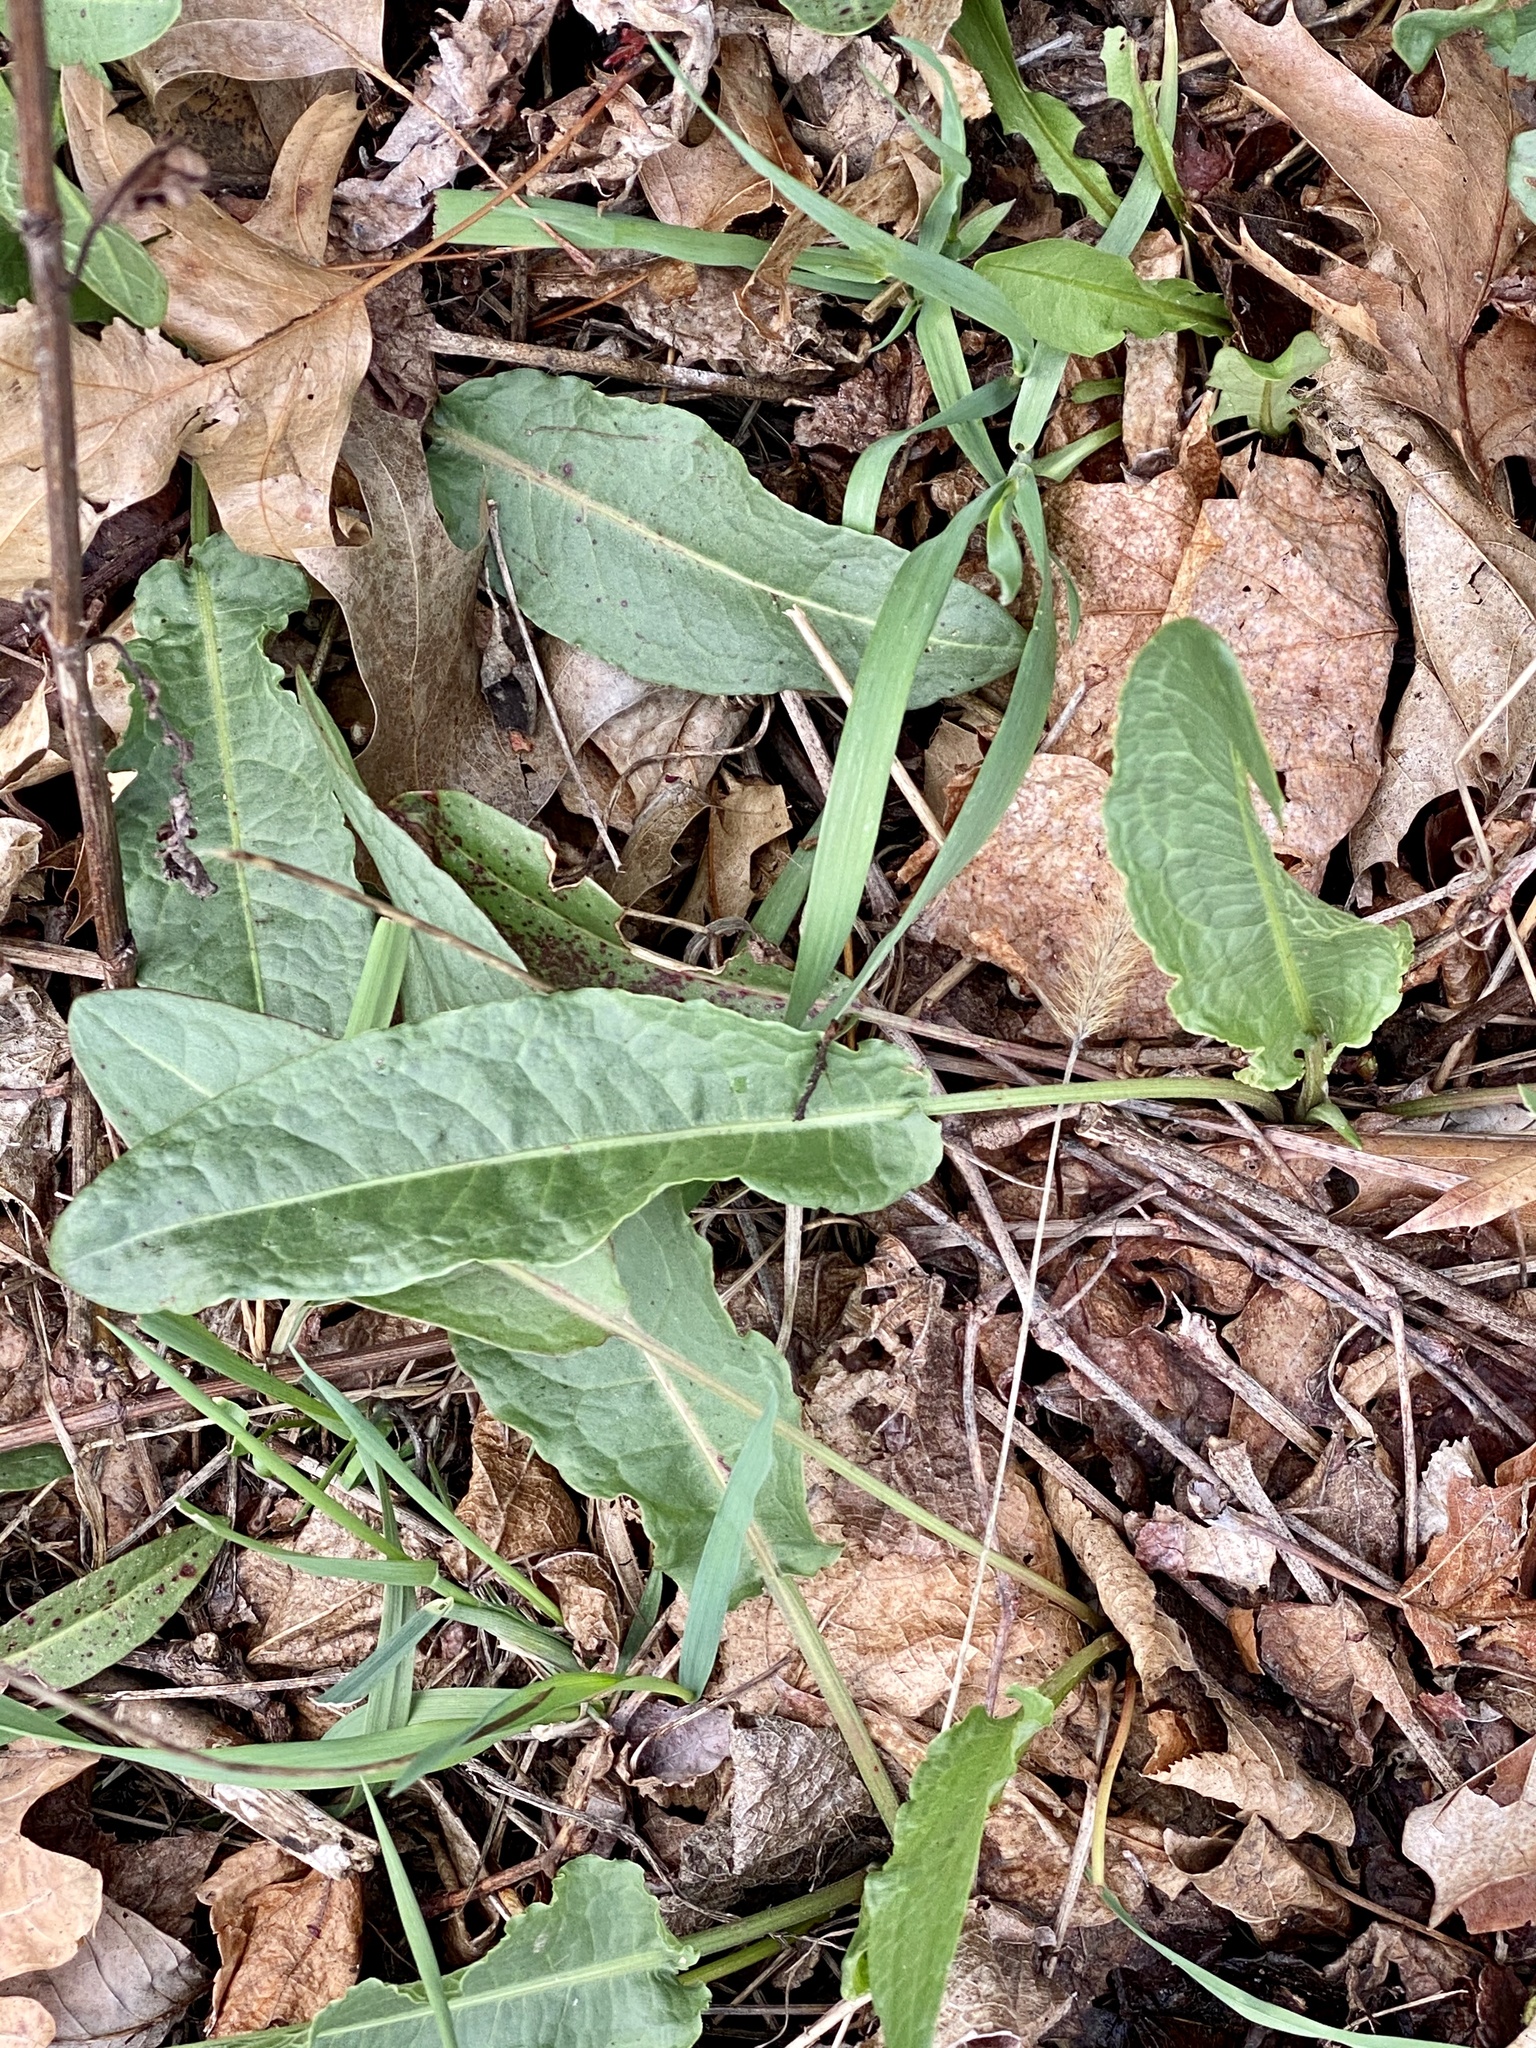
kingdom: Plantae
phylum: Tracheophyta
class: Magnoliopsida
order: Caryophyllales
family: Polygonaceae
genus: Rumex
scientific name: Rumex crispus
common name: Curled dock
